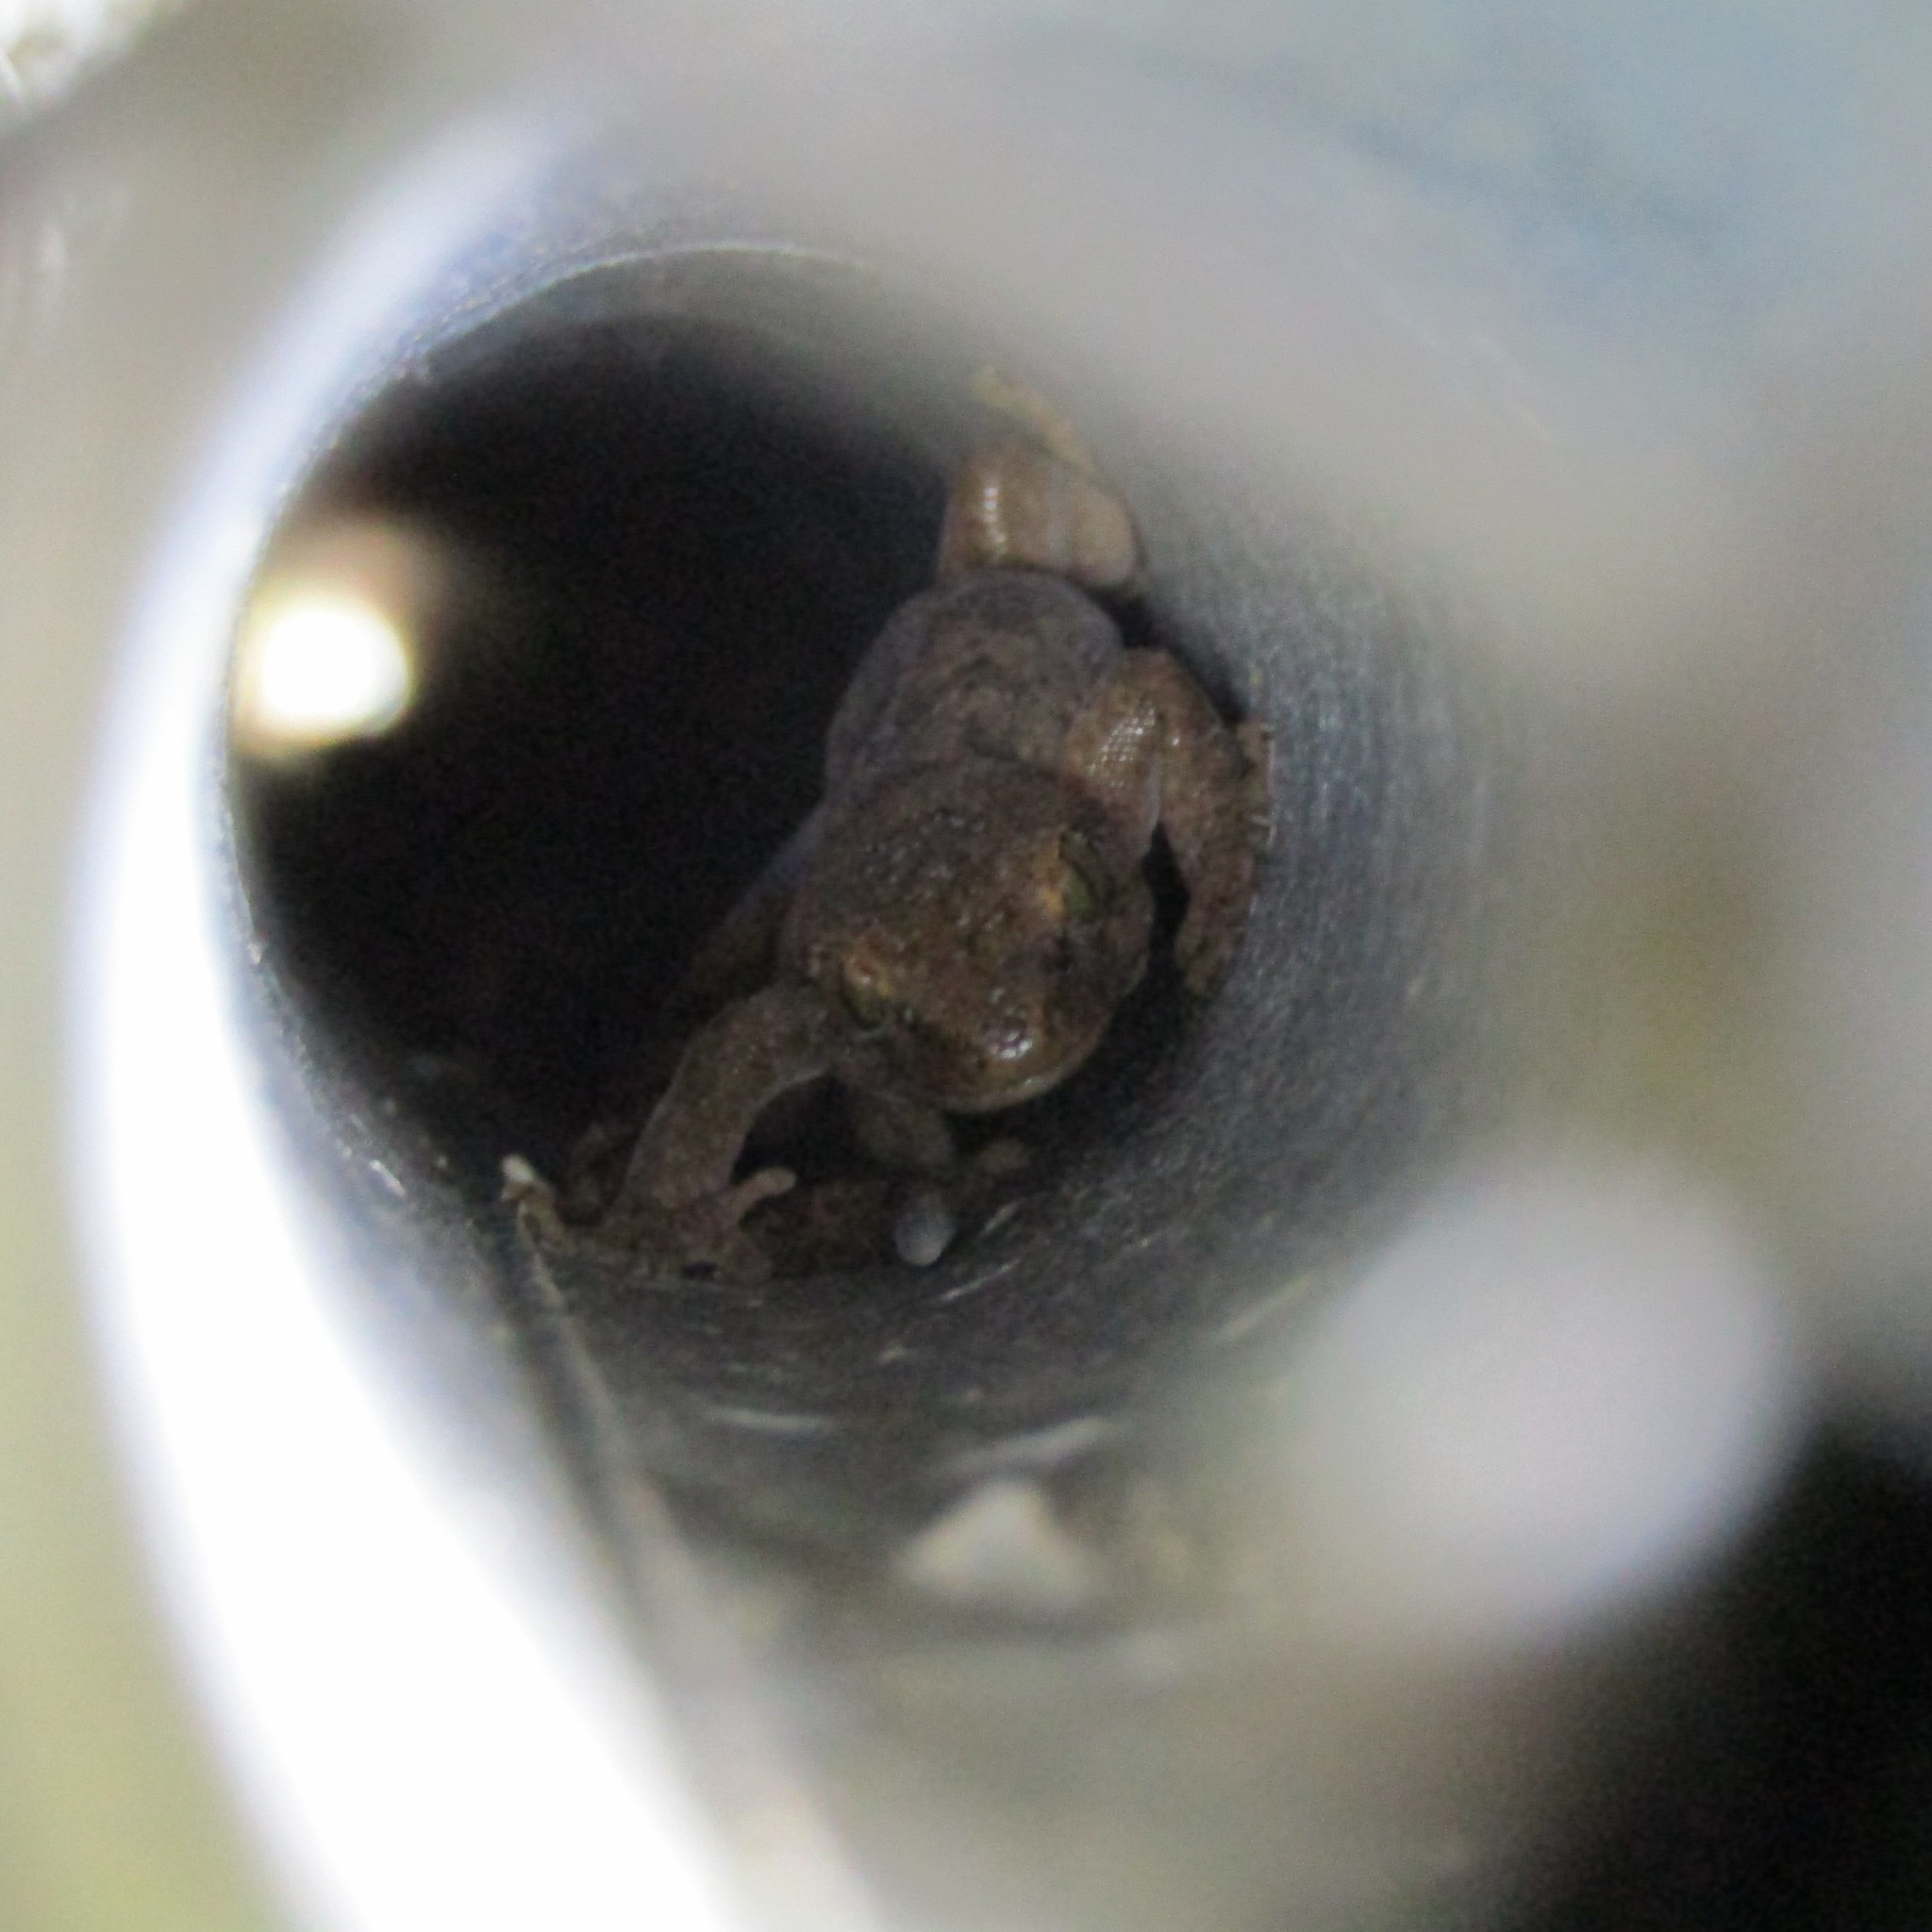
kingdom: Animalia
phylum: Chordata
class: Squamata
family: Diplodactylidae
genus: Woodworthia
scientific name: Woodworthia maculata
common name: Raukawa gecko
